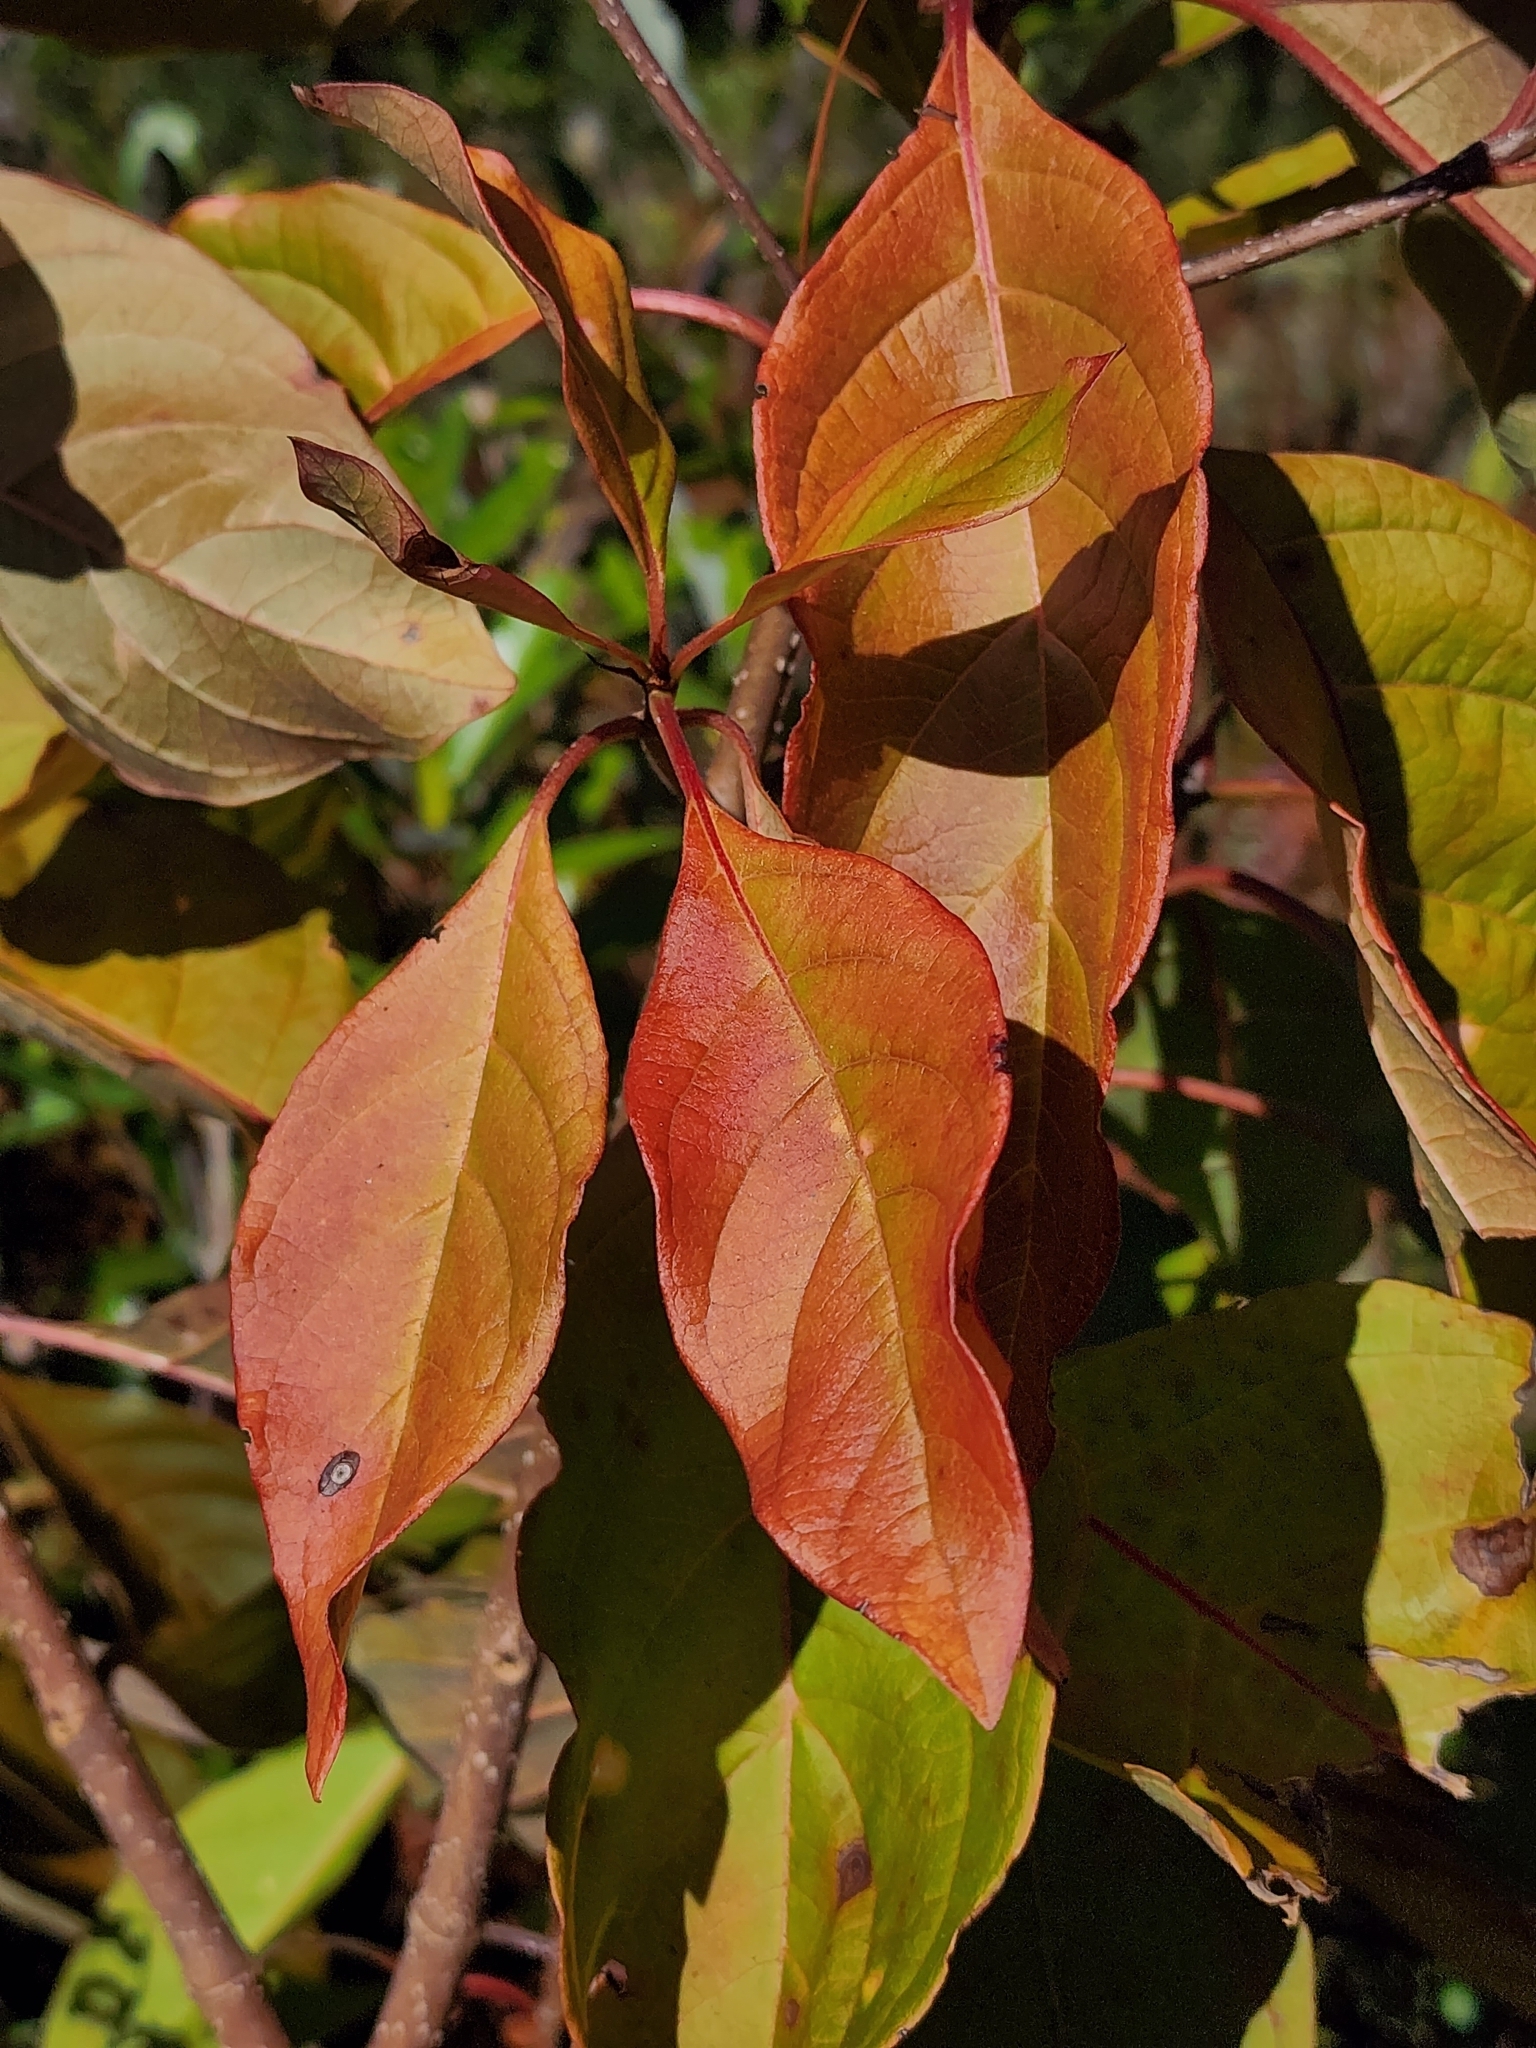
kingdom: Plantae
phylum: Tracheophyta
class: Magnoliopsida
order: Gentianales
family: Rubiaceae
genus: Pinckneya
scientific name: Pinckneya pubens
